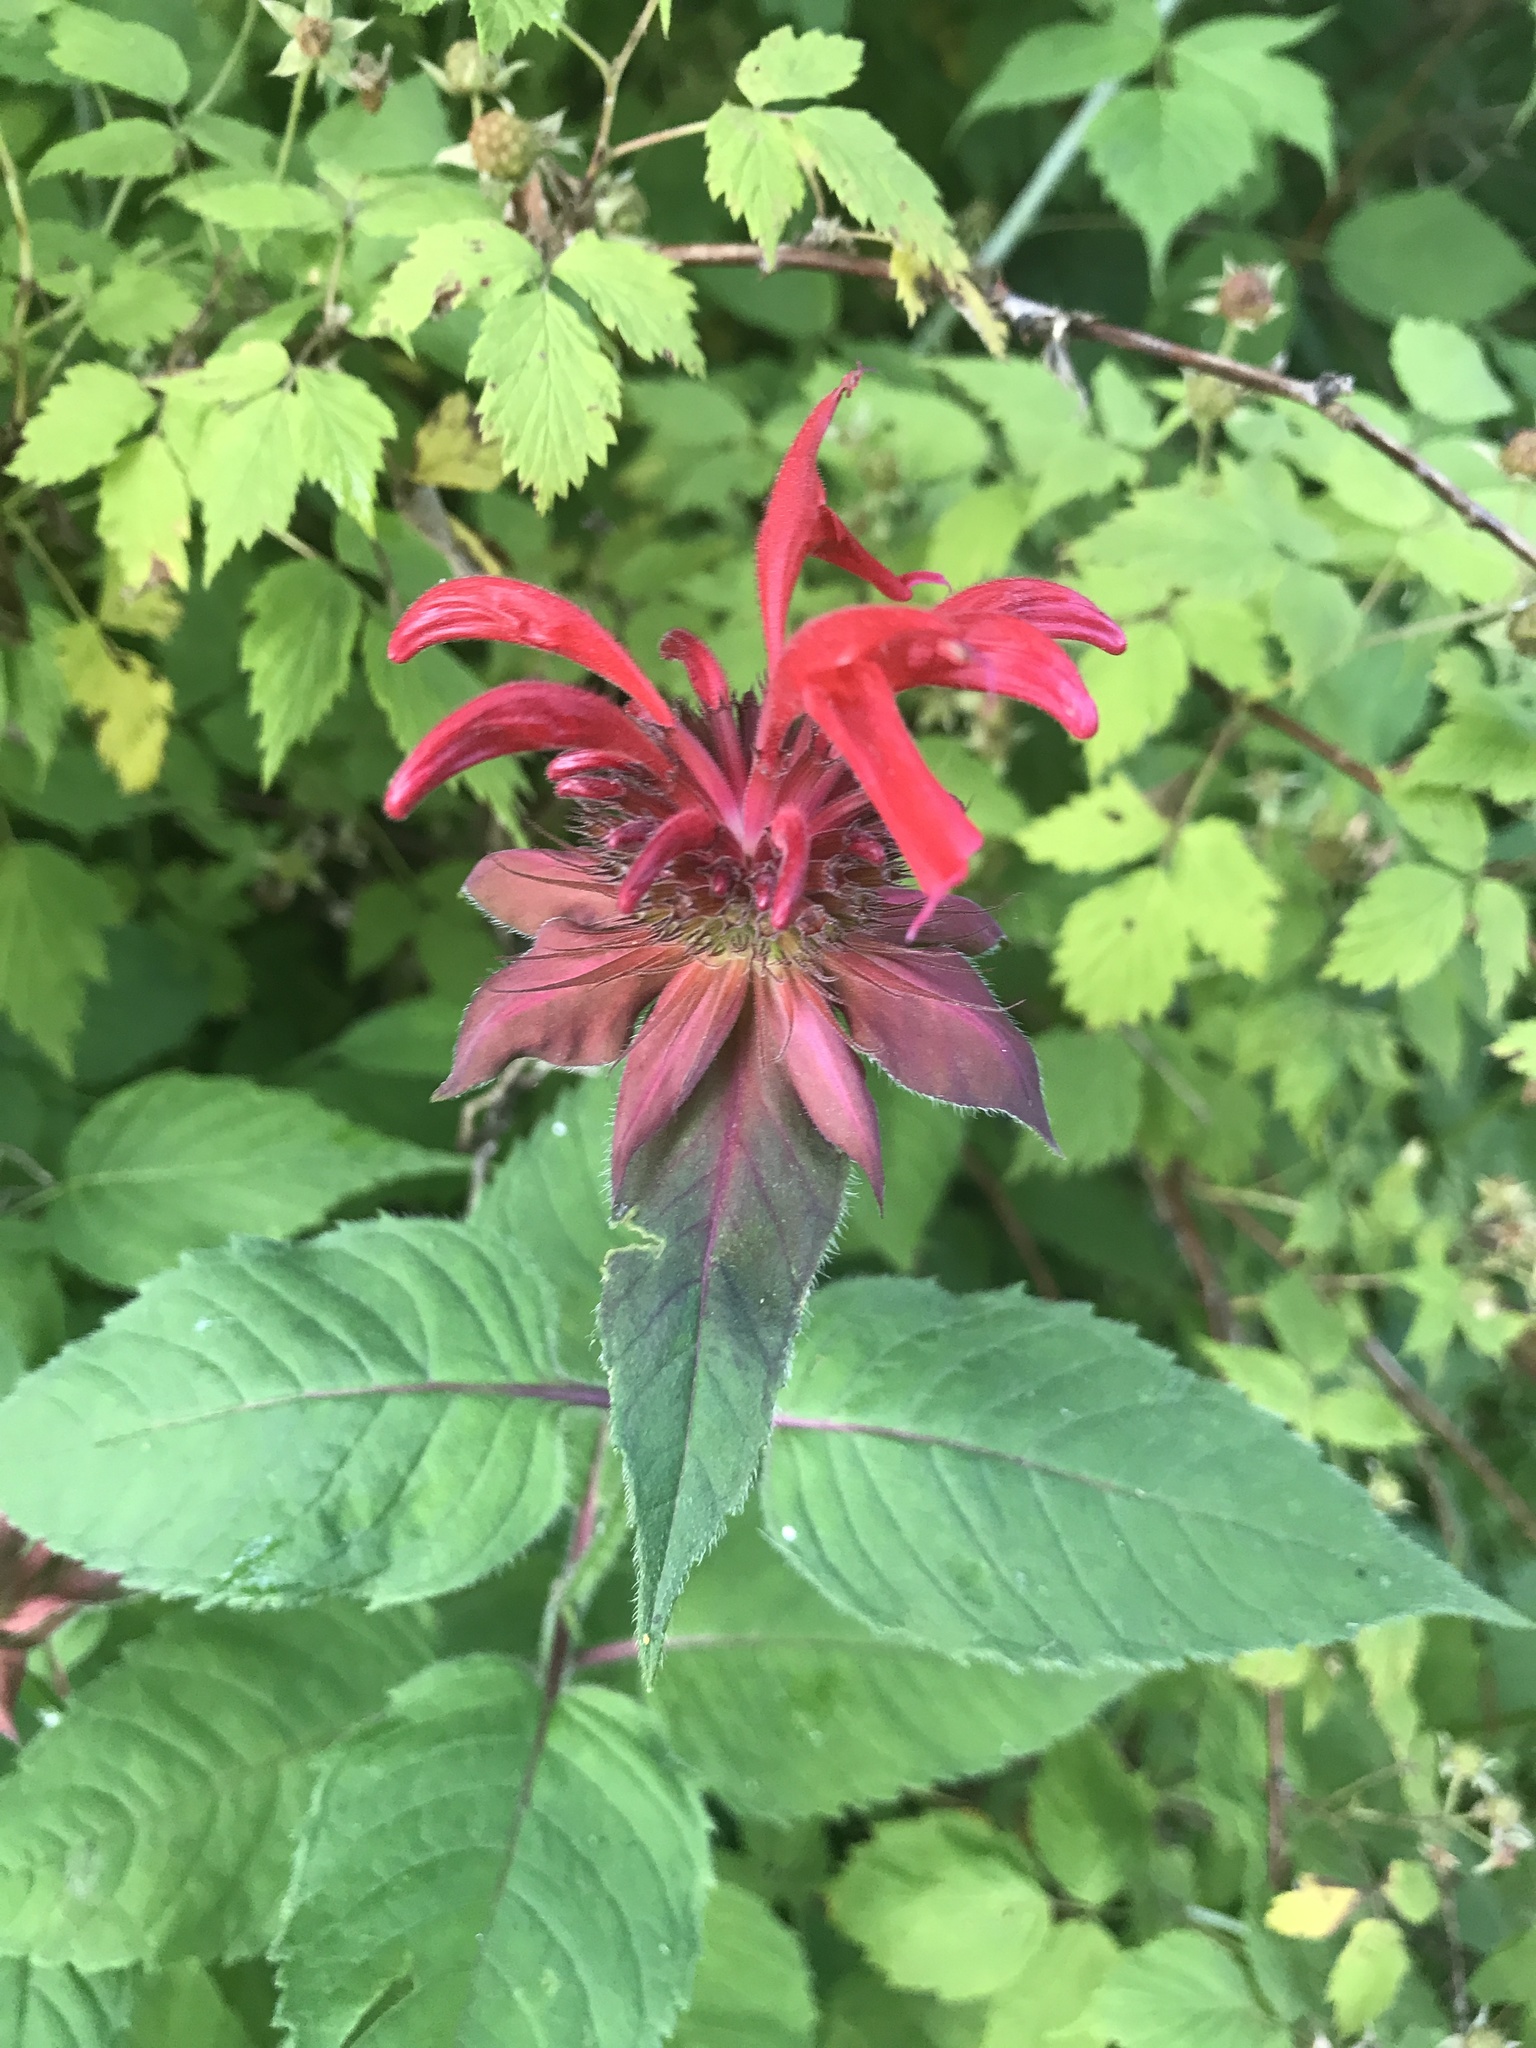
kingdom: Plantae
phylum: Tracheophyta
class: Magnoliopsida
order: Lamiales
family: Lamiaceae
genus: Monarda
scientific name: Monarda didyma
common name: Beebalm
